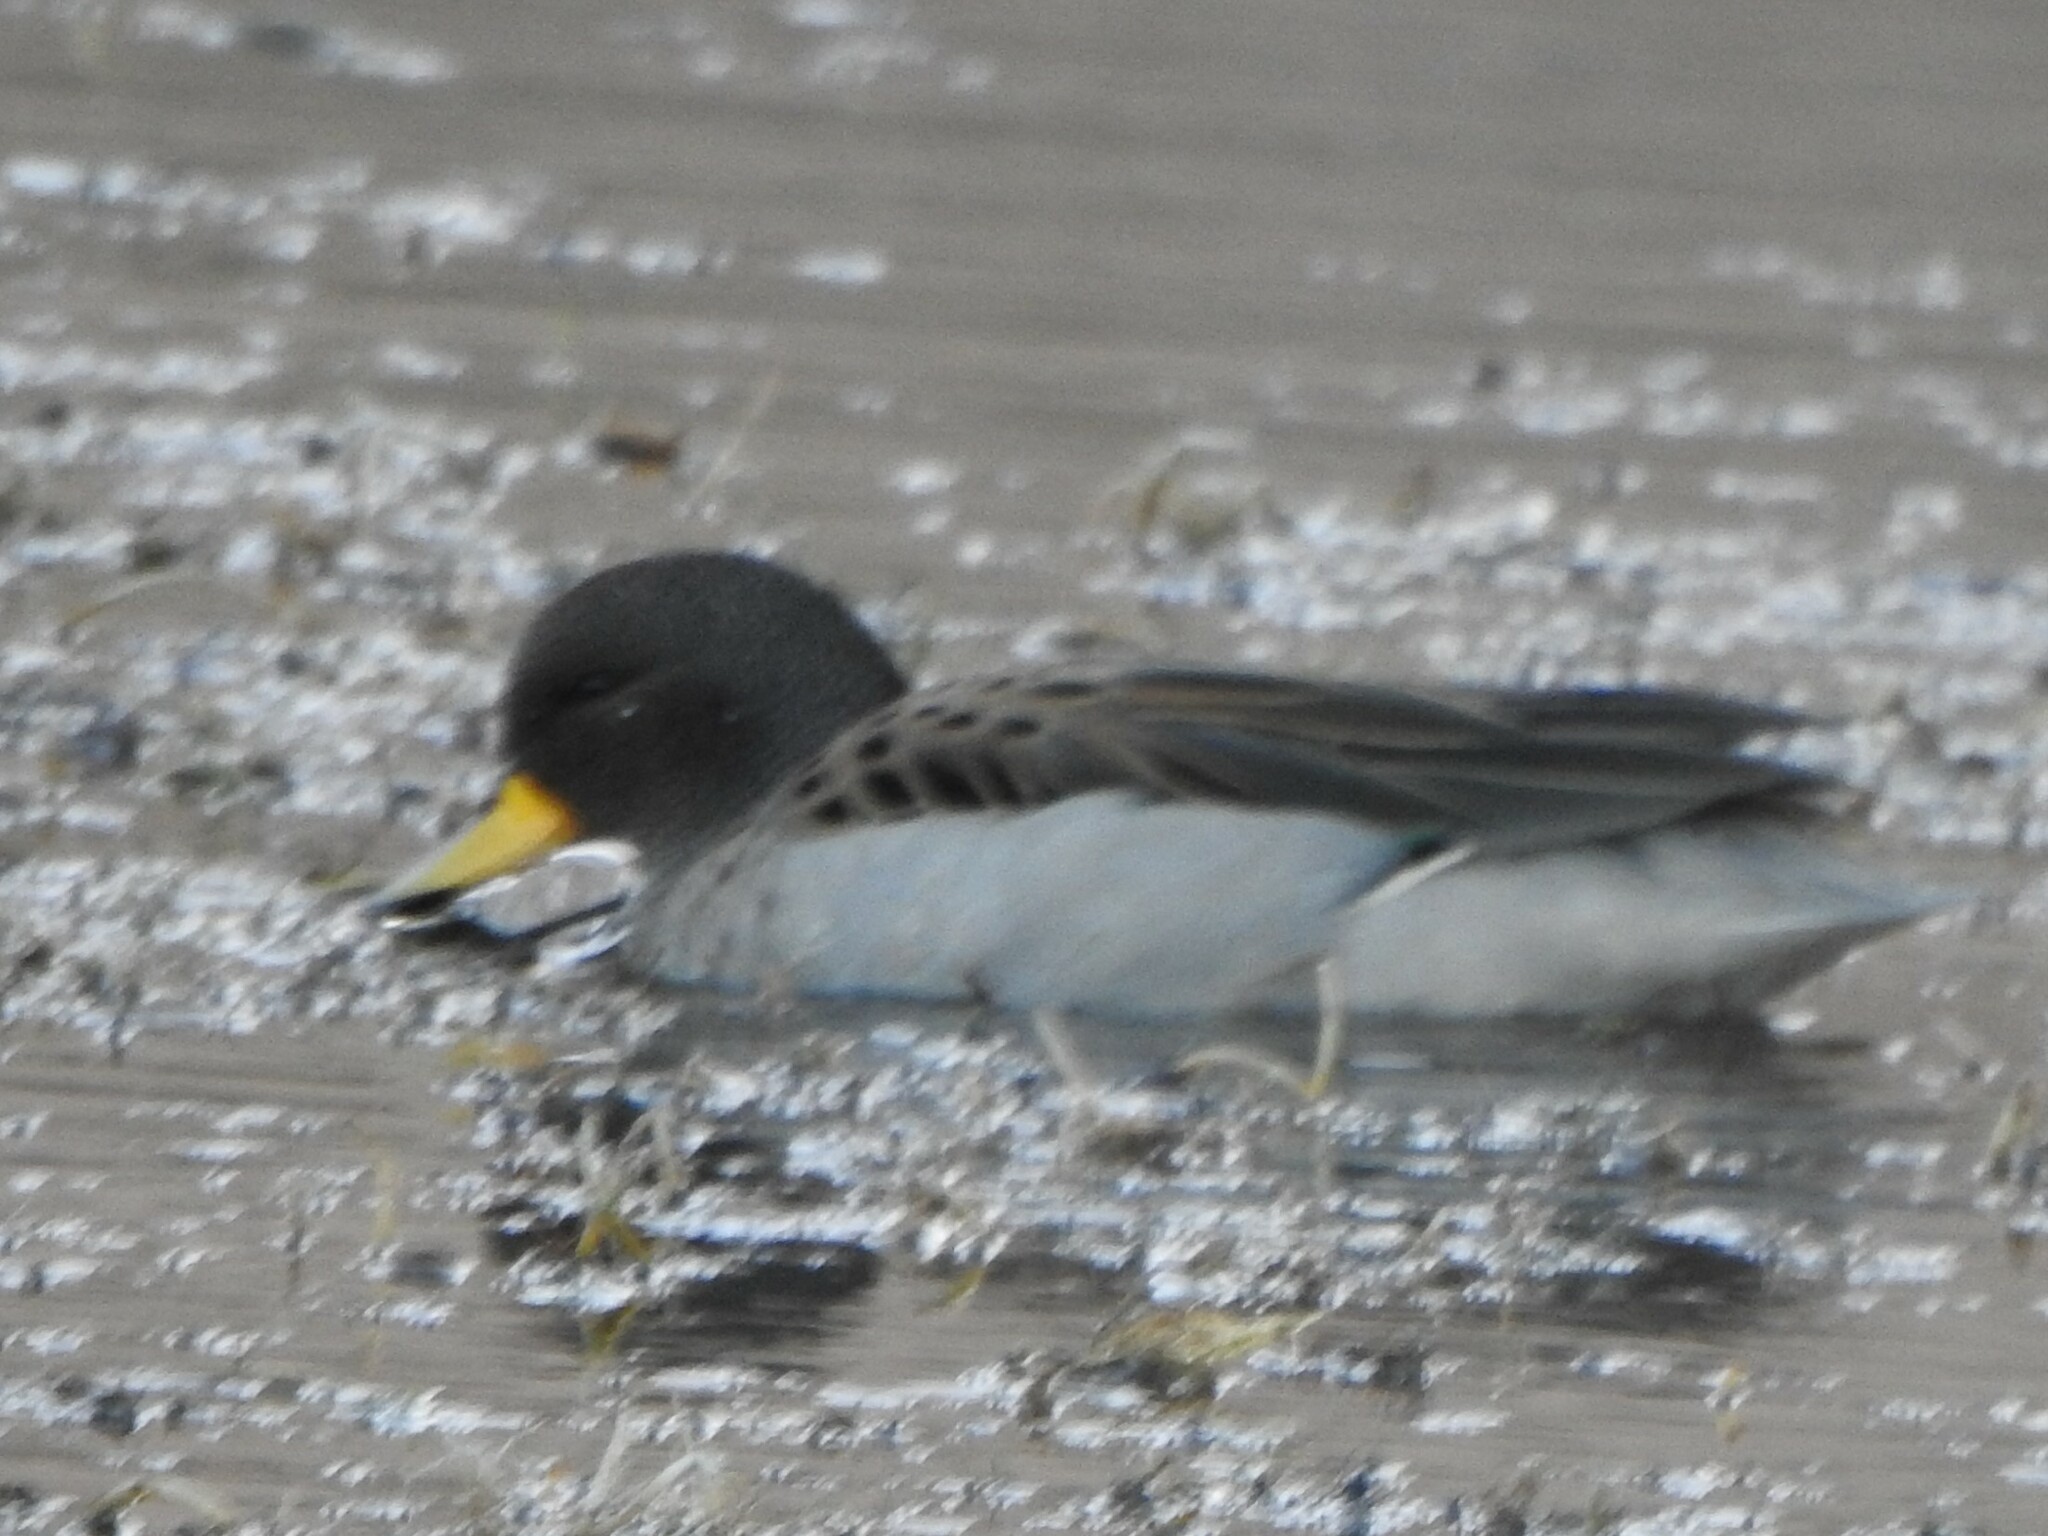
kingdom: Animalia
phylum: Chordata
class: Aves
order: Anseriformes
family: Anatidae
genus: Anas
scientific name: Anas flavirostris
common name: Yellow-billed teal
